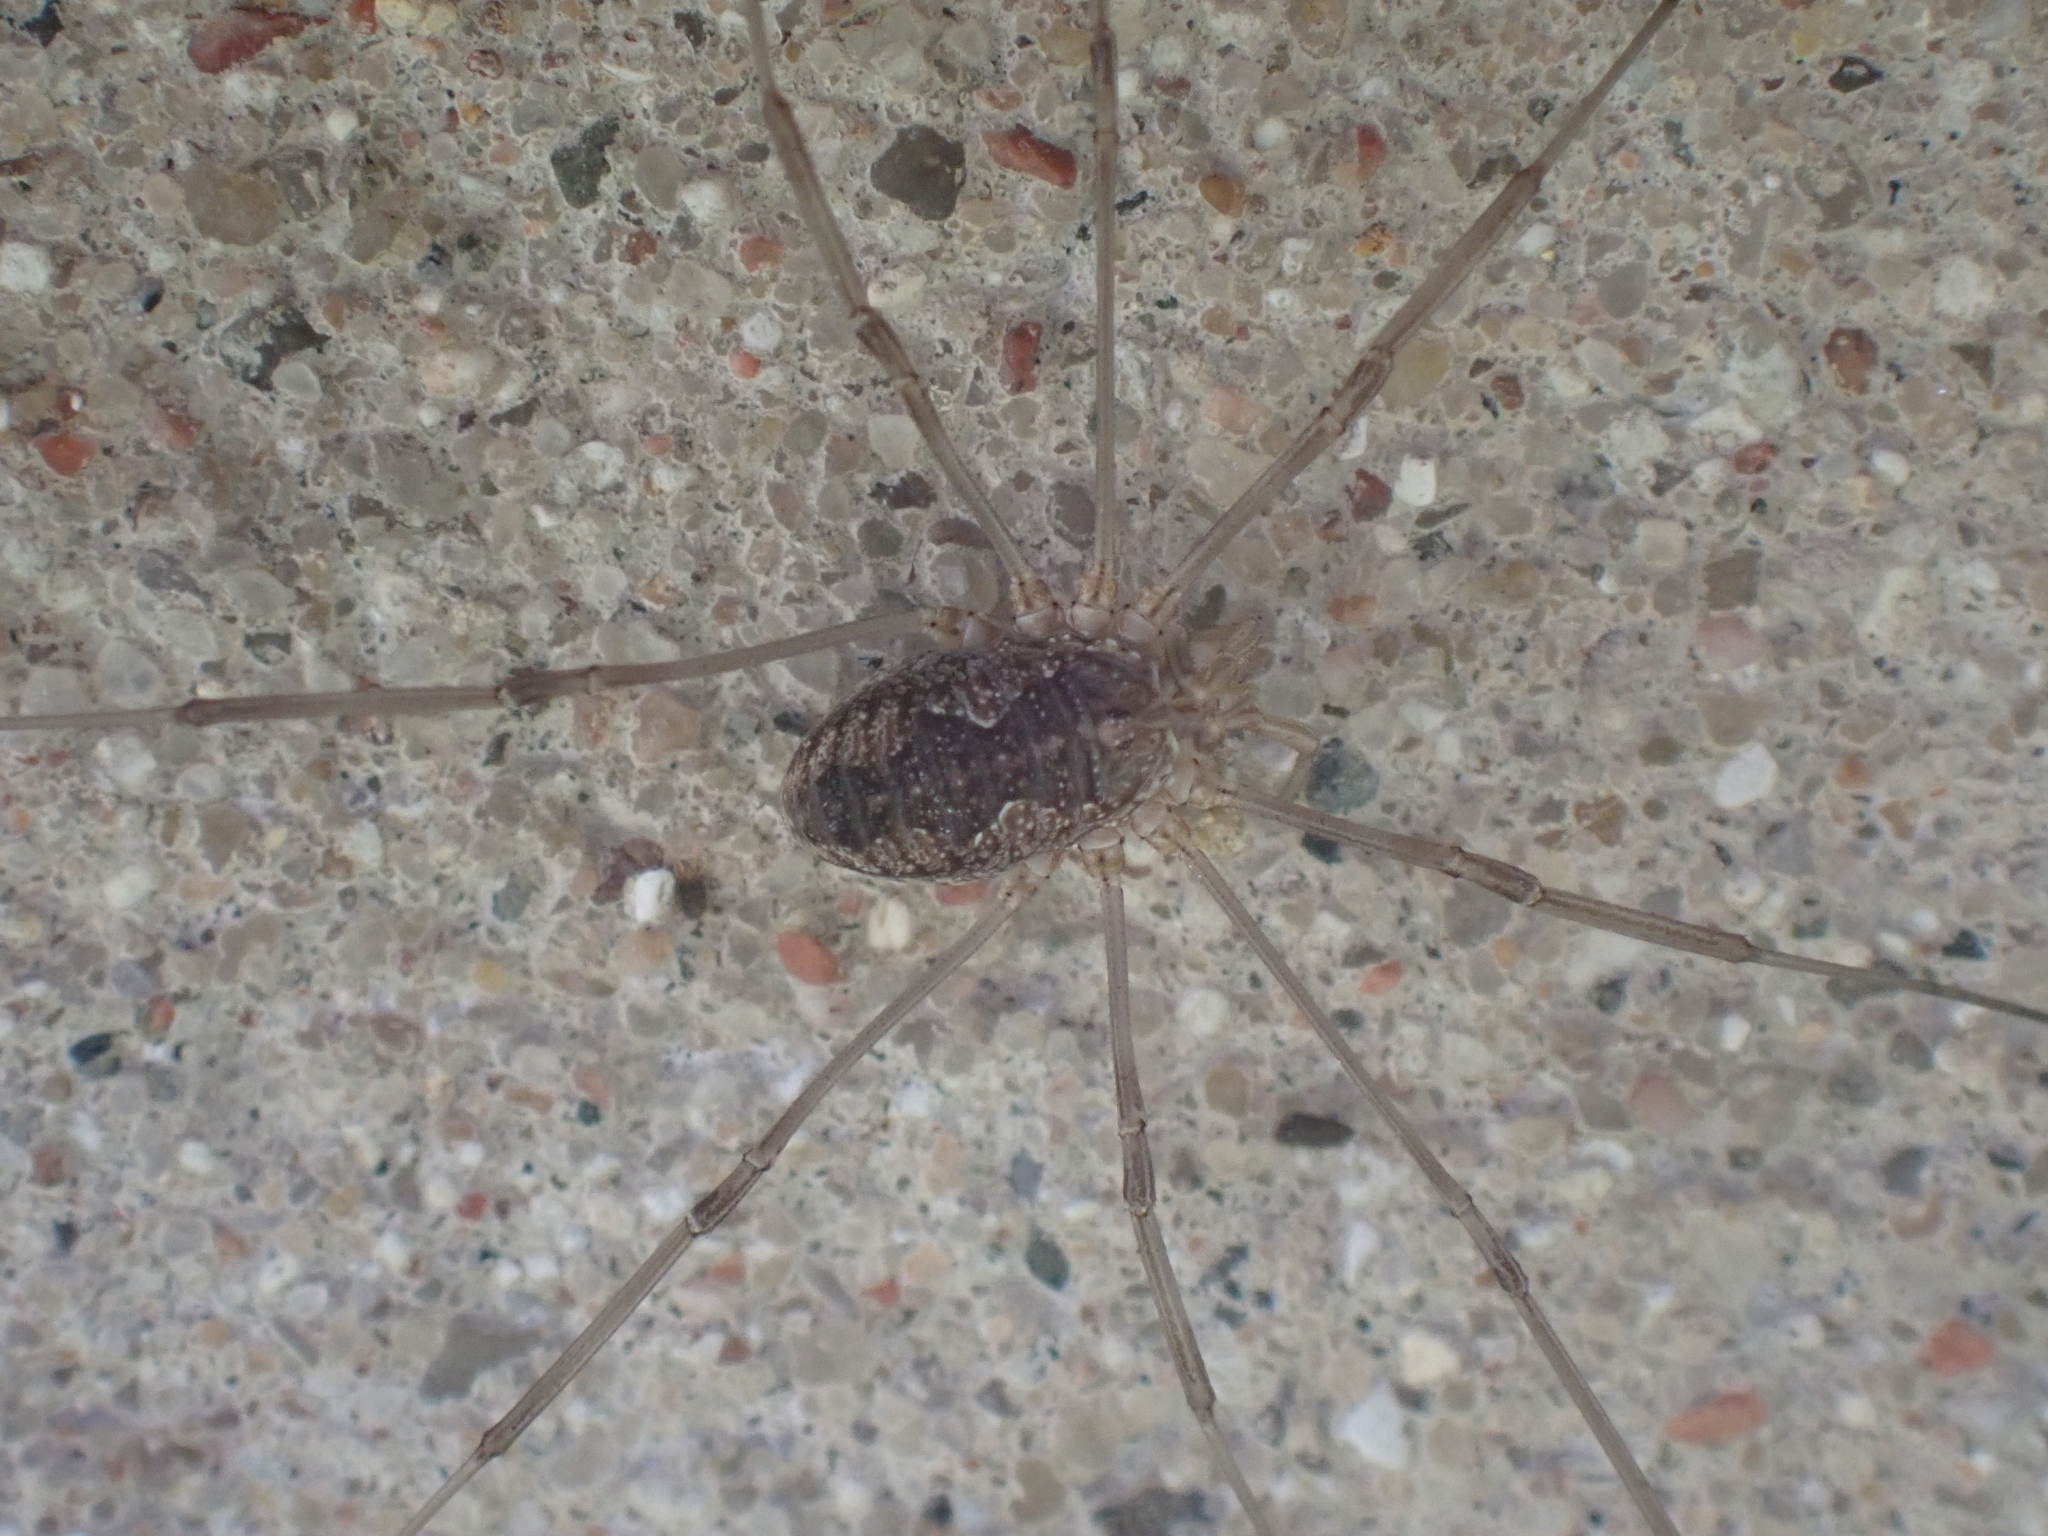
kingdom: Animalia
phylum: Arthropoda
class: Arachnida
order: Opiliones
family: Phalangiidae
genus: Phalangium
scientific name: Phalangium opilio
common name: Daddy longleg
